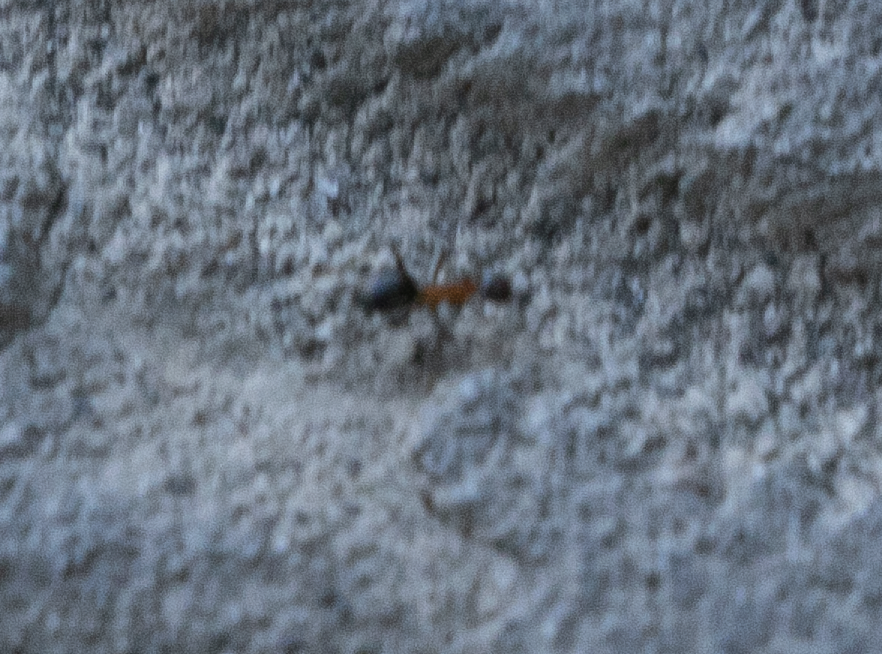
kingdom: Animalia
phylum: Arthropoda
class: Insecta
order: Hymenoptera
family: Formicidae
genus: Lasius
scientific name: Lasius emarginatus
